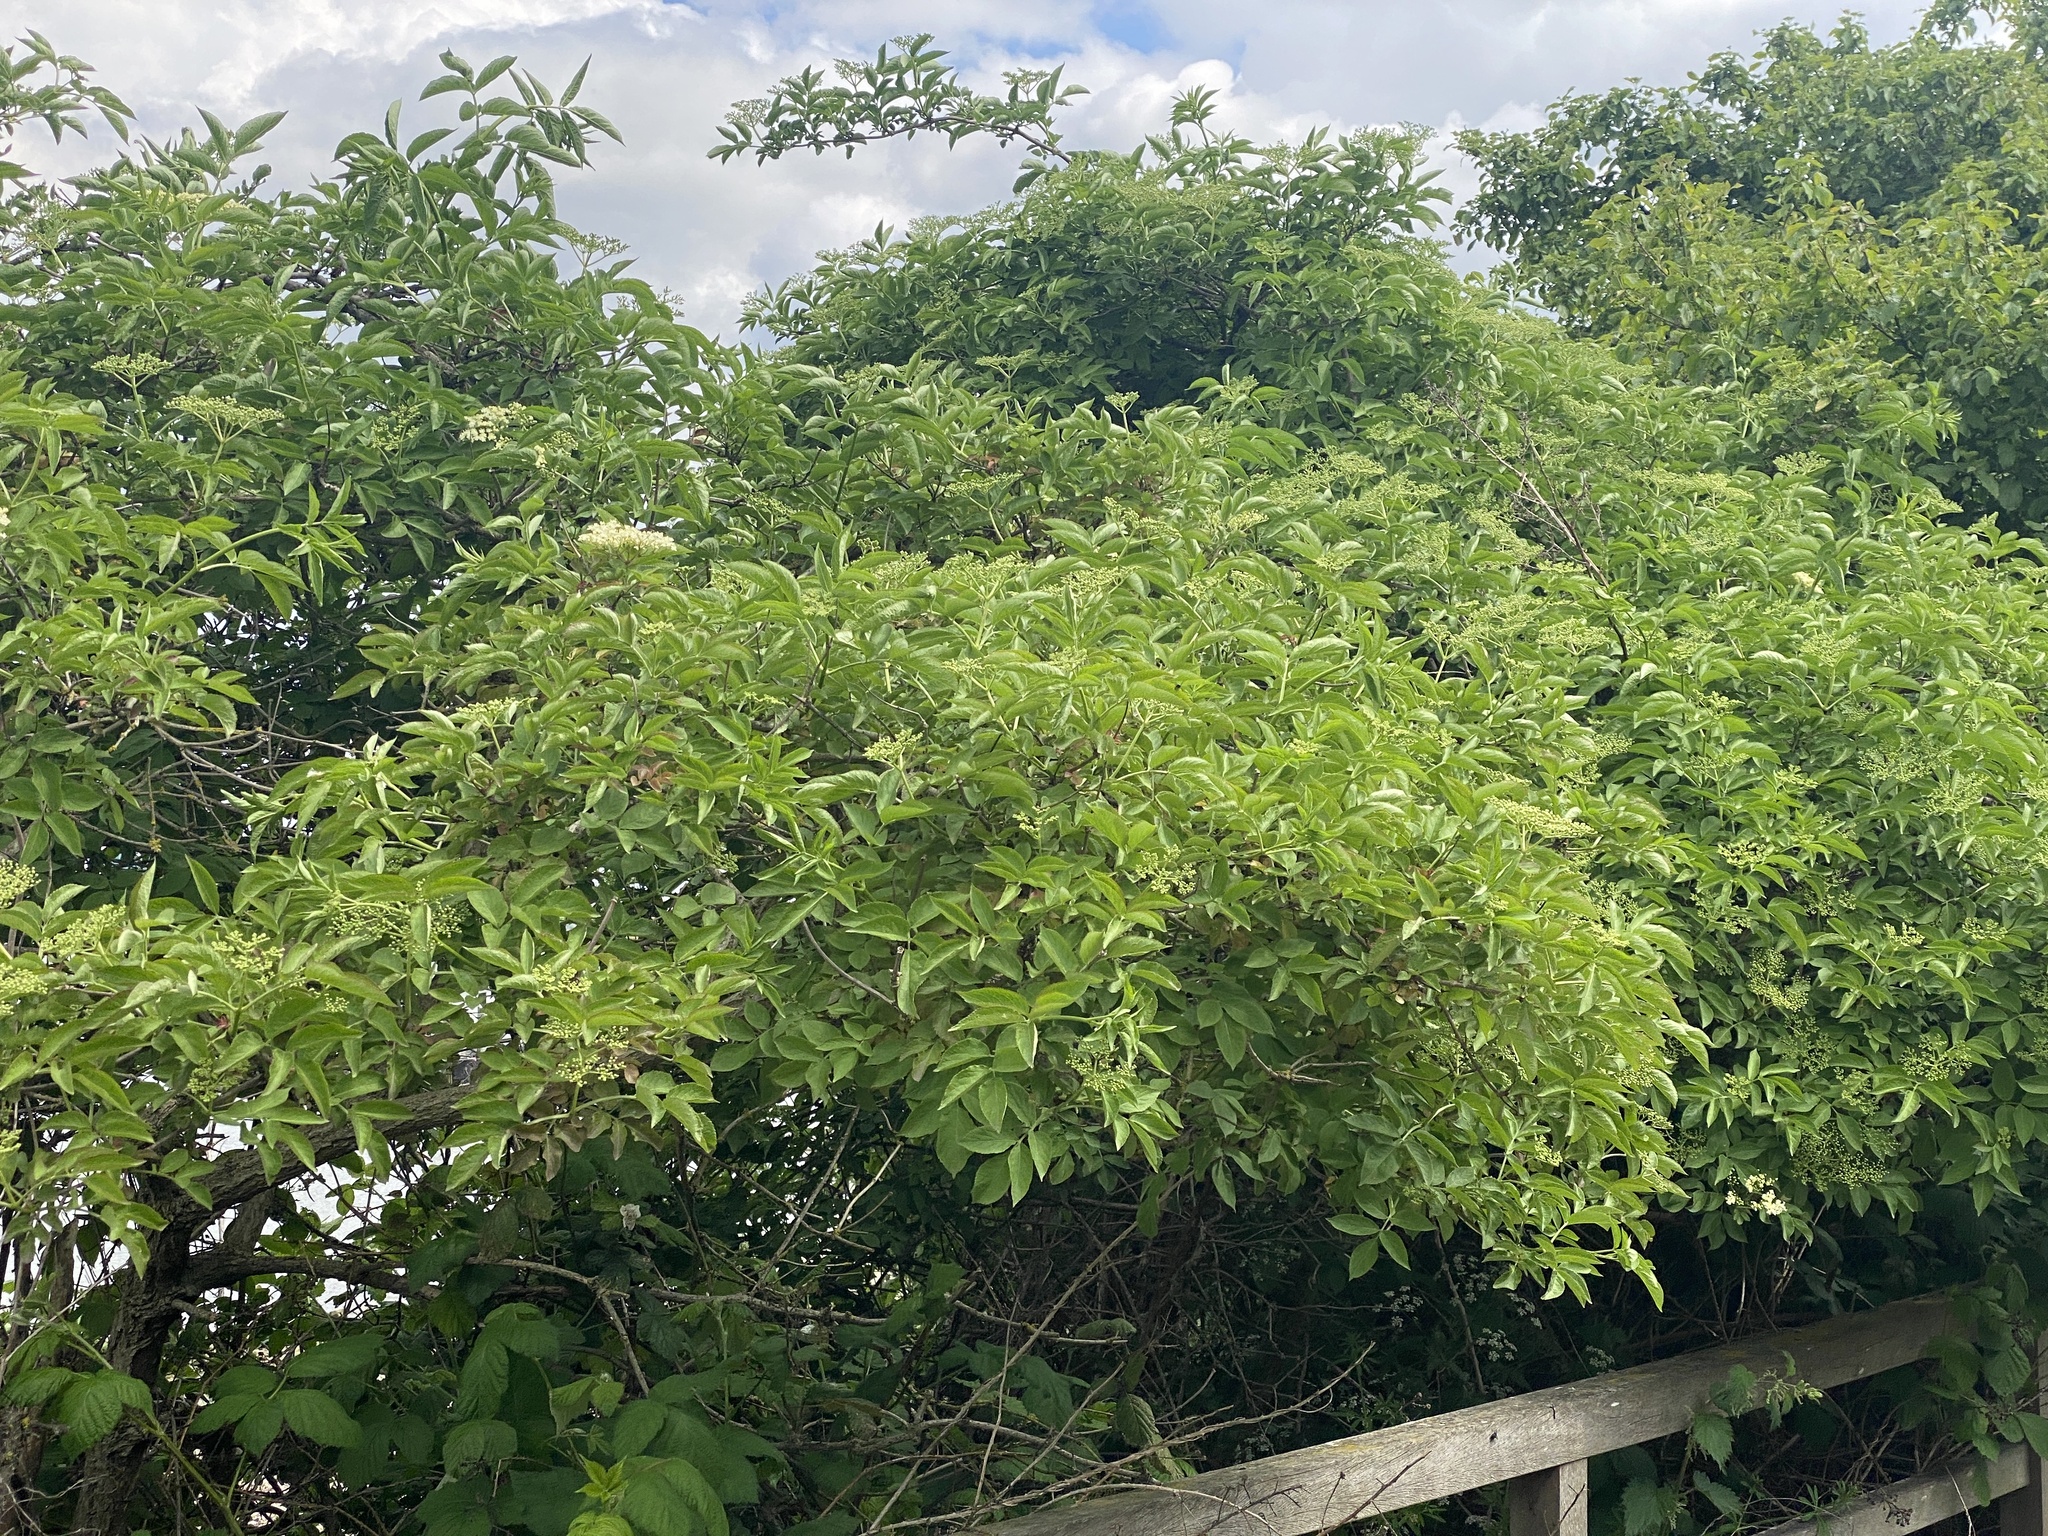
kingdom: Plantae
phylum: Tracheophyta
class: Magnoliopsida
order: Dipsacales
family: Viburnaceae
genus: Sambucus
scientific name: Sambucus nigra
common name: Elder
